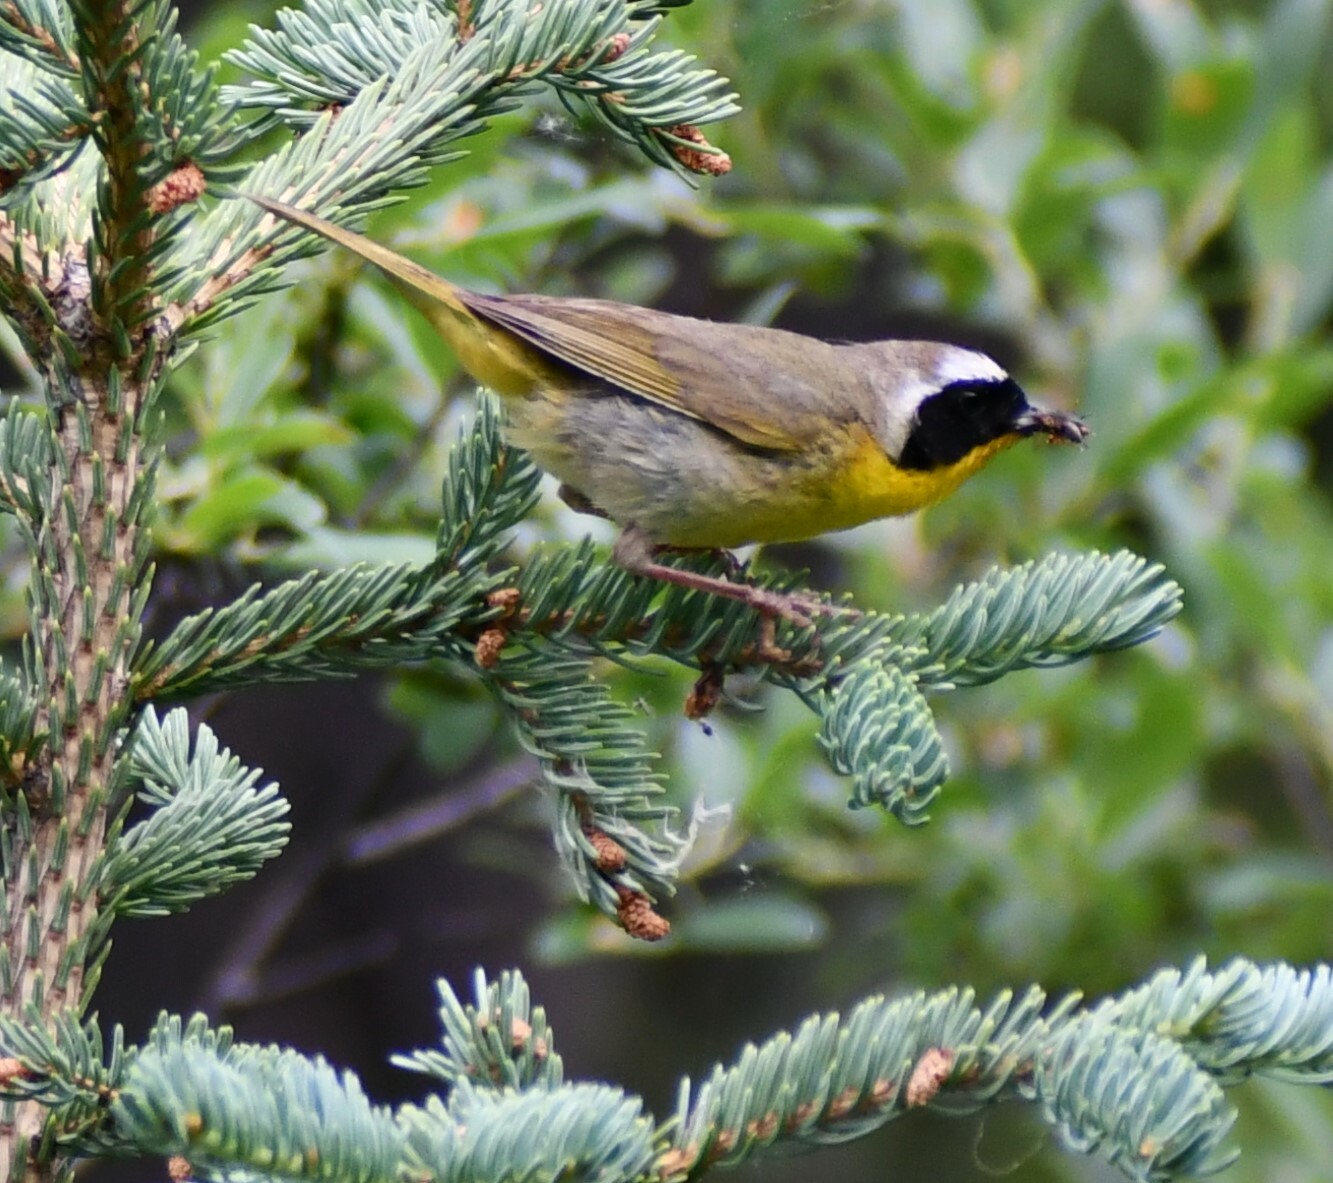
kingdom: Animalia
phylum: Chordata
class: Aves
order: Passeriformes
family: Parulidae
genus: Geothlypis
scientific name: Geothlypis trichas
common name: Common yellowthroat
